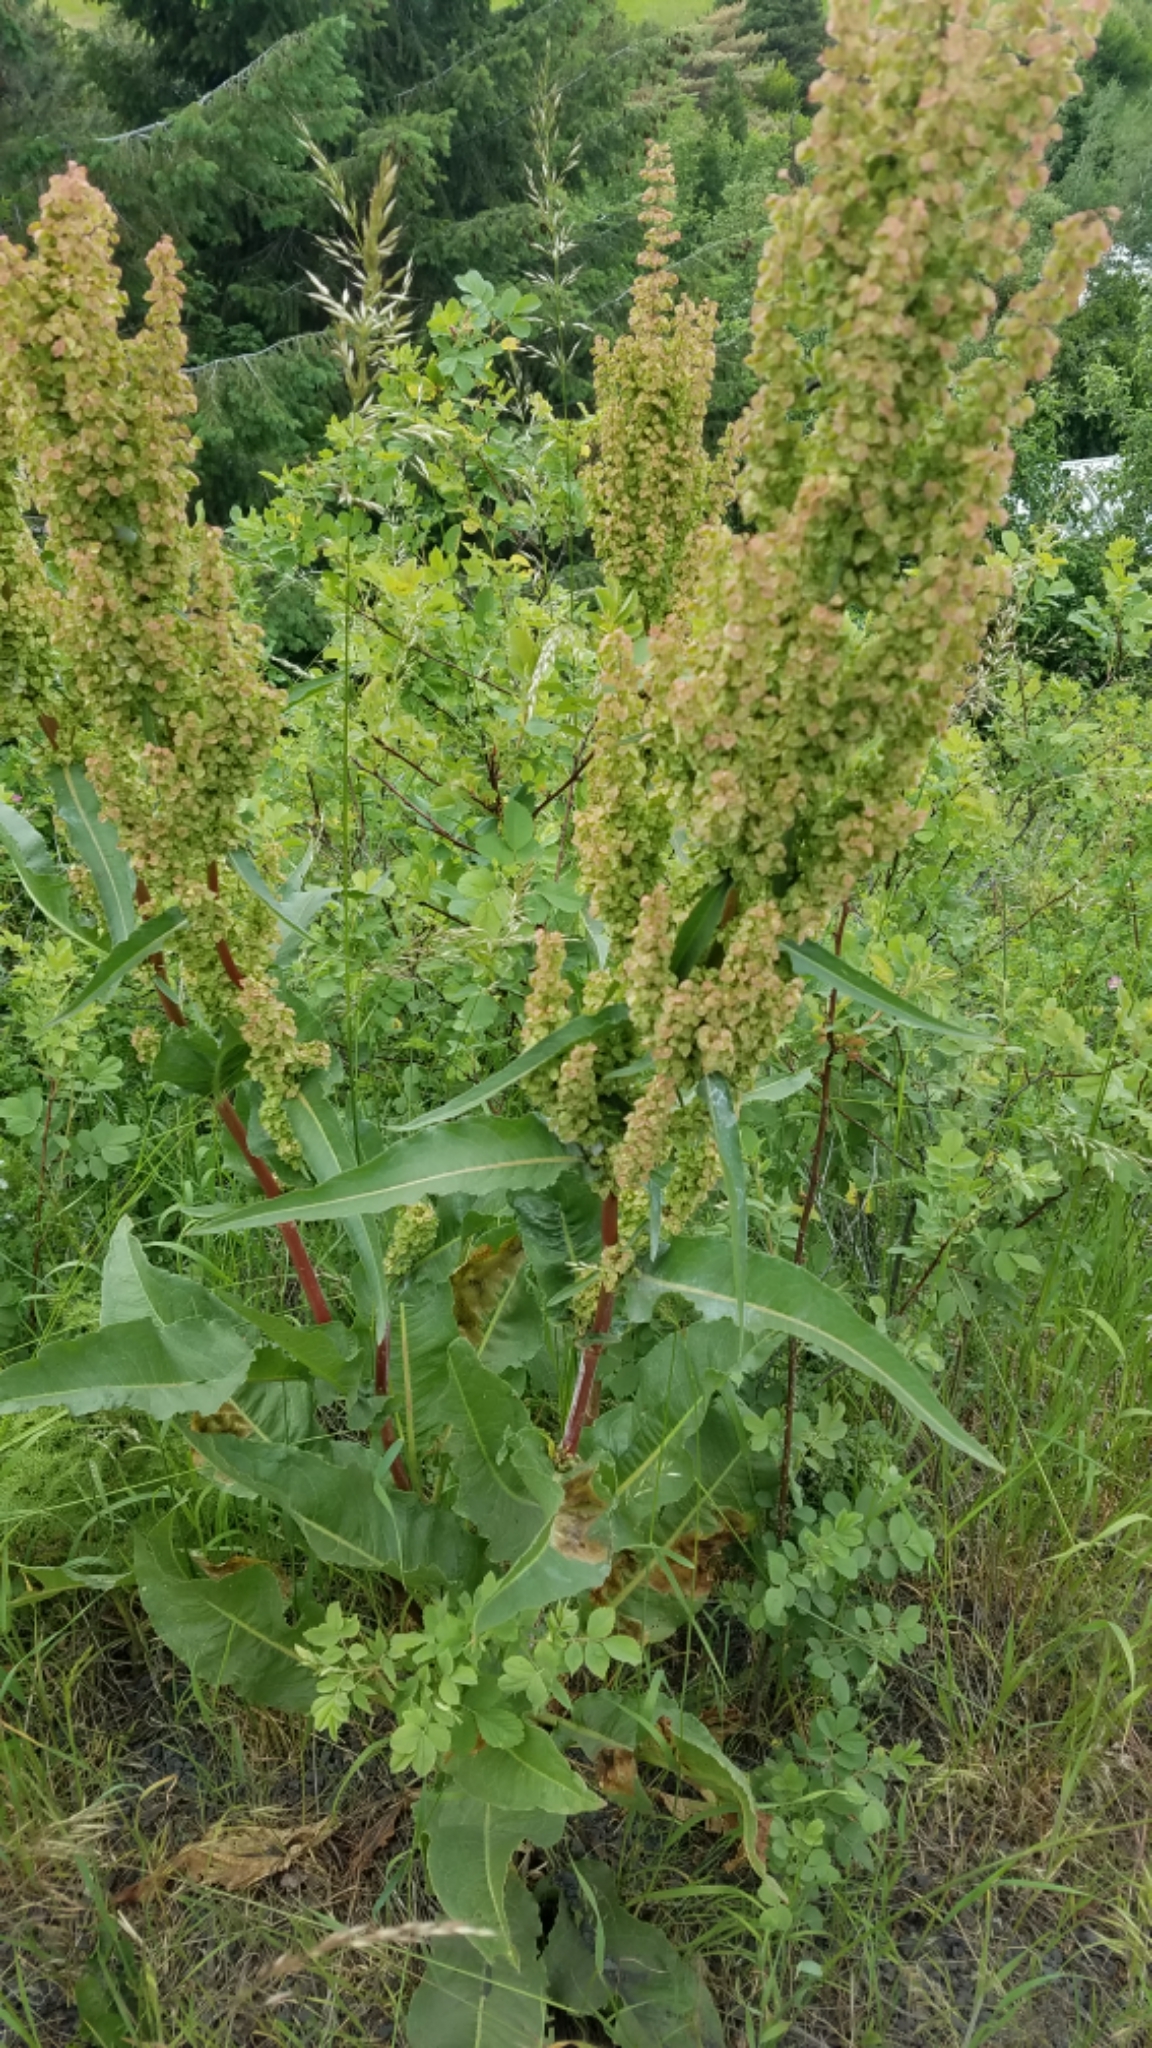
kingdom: Plantae
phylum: Tracheophyta
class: Magnoliopsida
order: Caryophyllales
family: Polygonaceae
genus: Rumex
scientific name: Rumex crispus
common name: Curled dock
